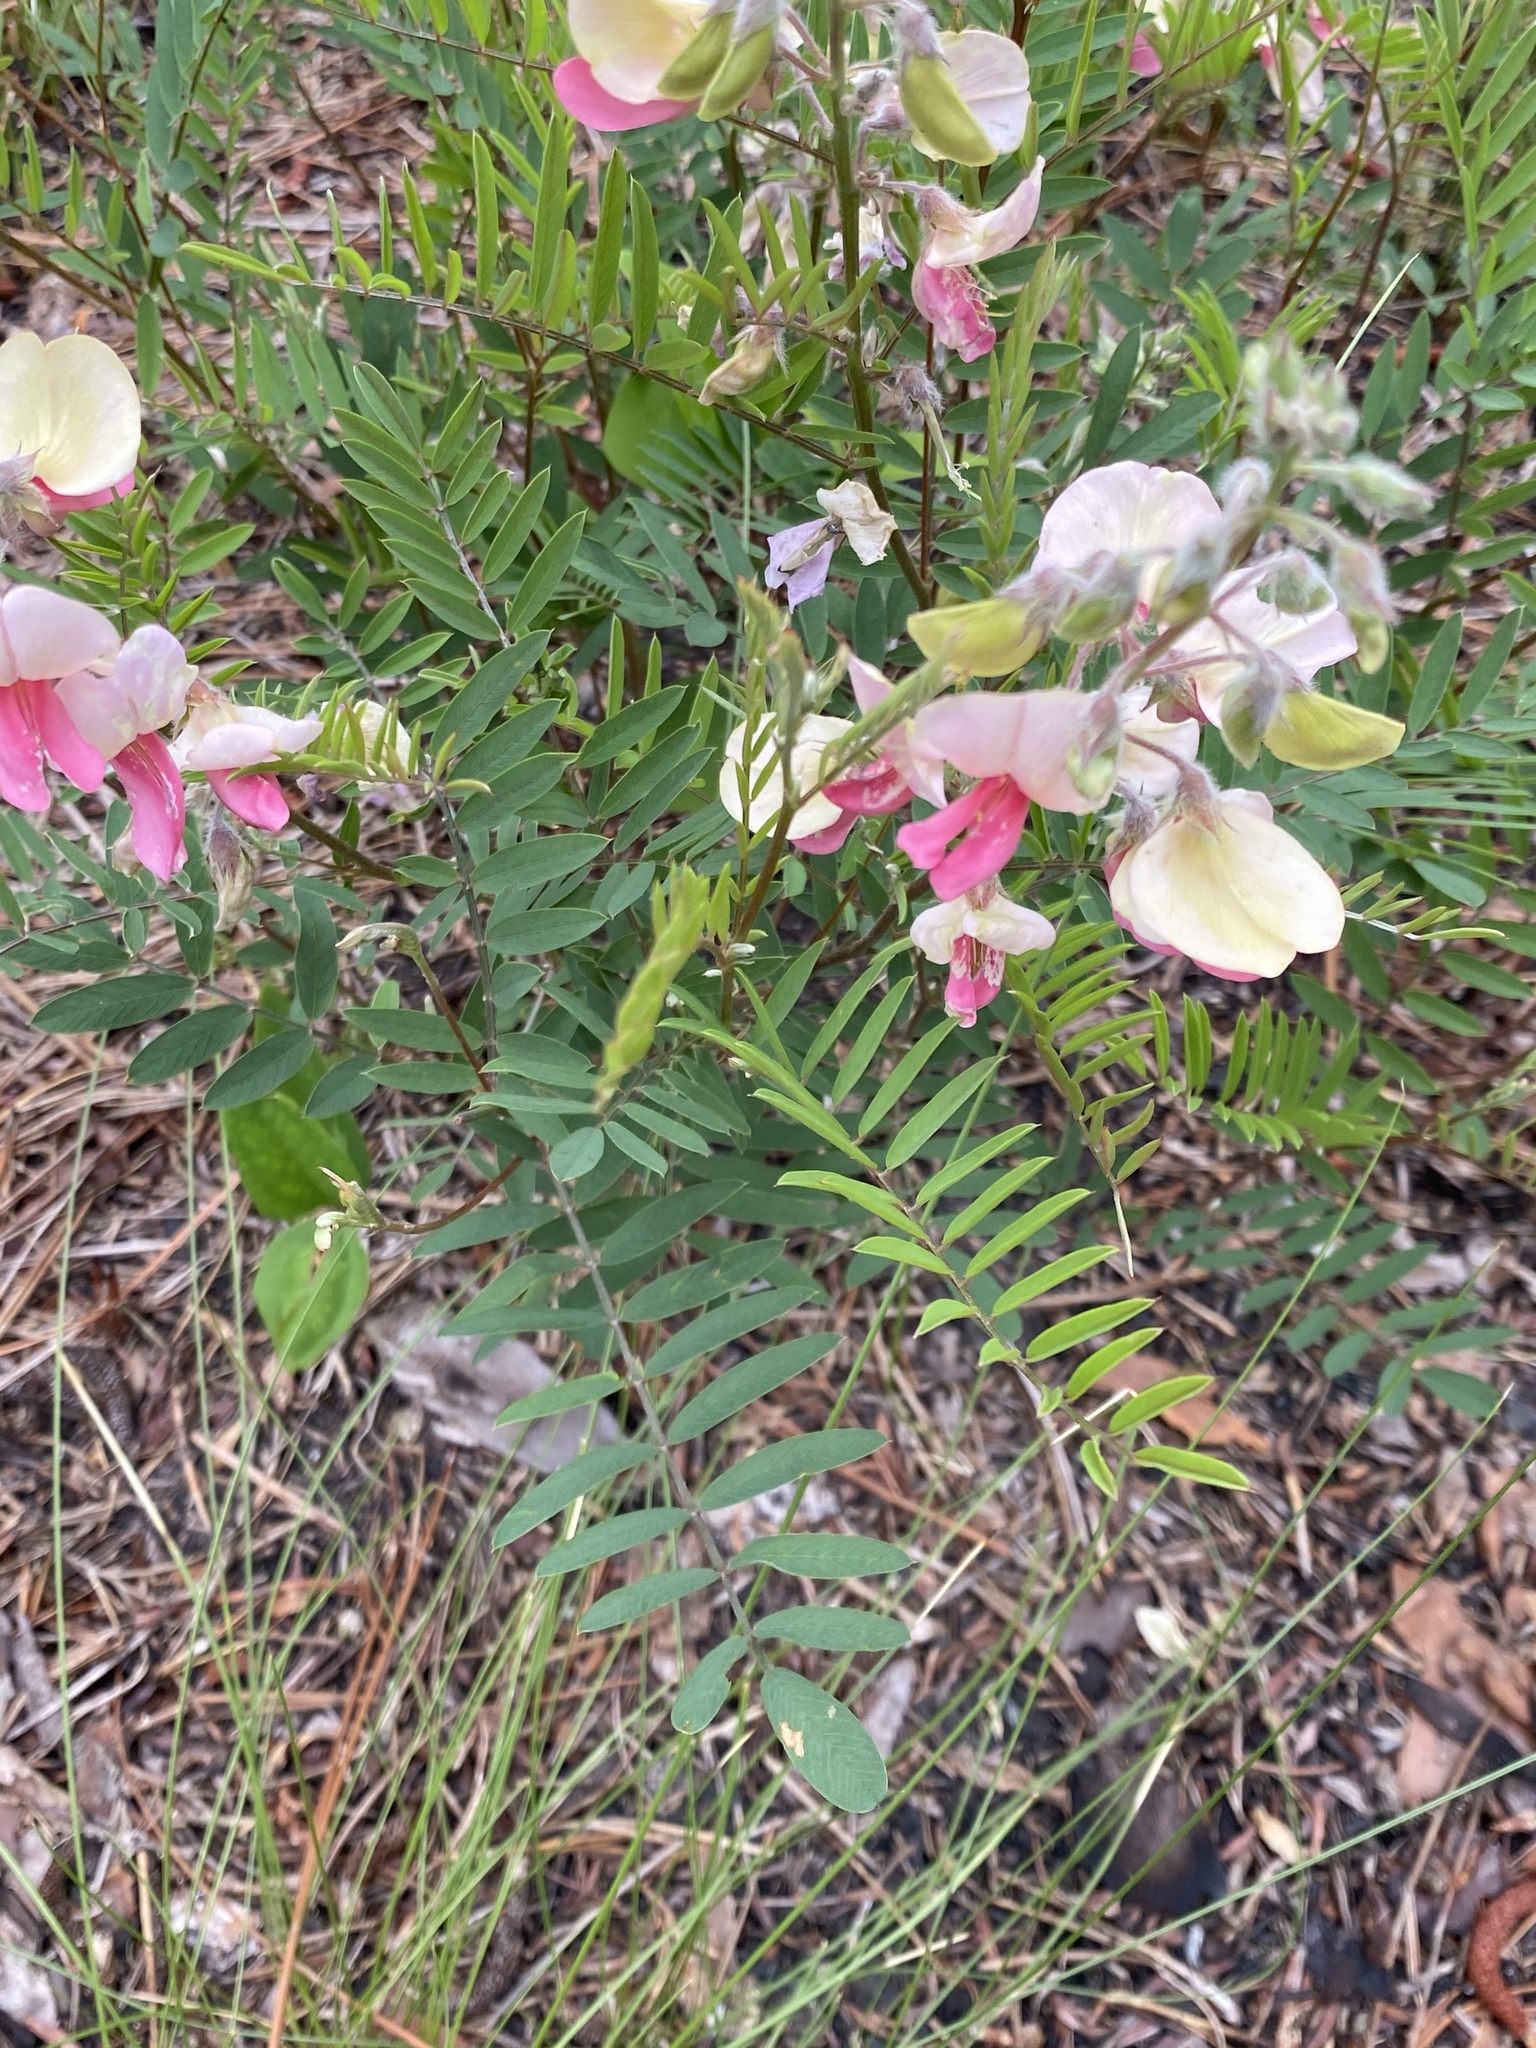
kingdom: Plantae
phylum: Tracheophyta
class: Magnoliopsida
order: Fabales
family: Fabaceae
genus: Tephrosia
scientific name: Tephrosia virginiana
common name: Rabbit-pea
